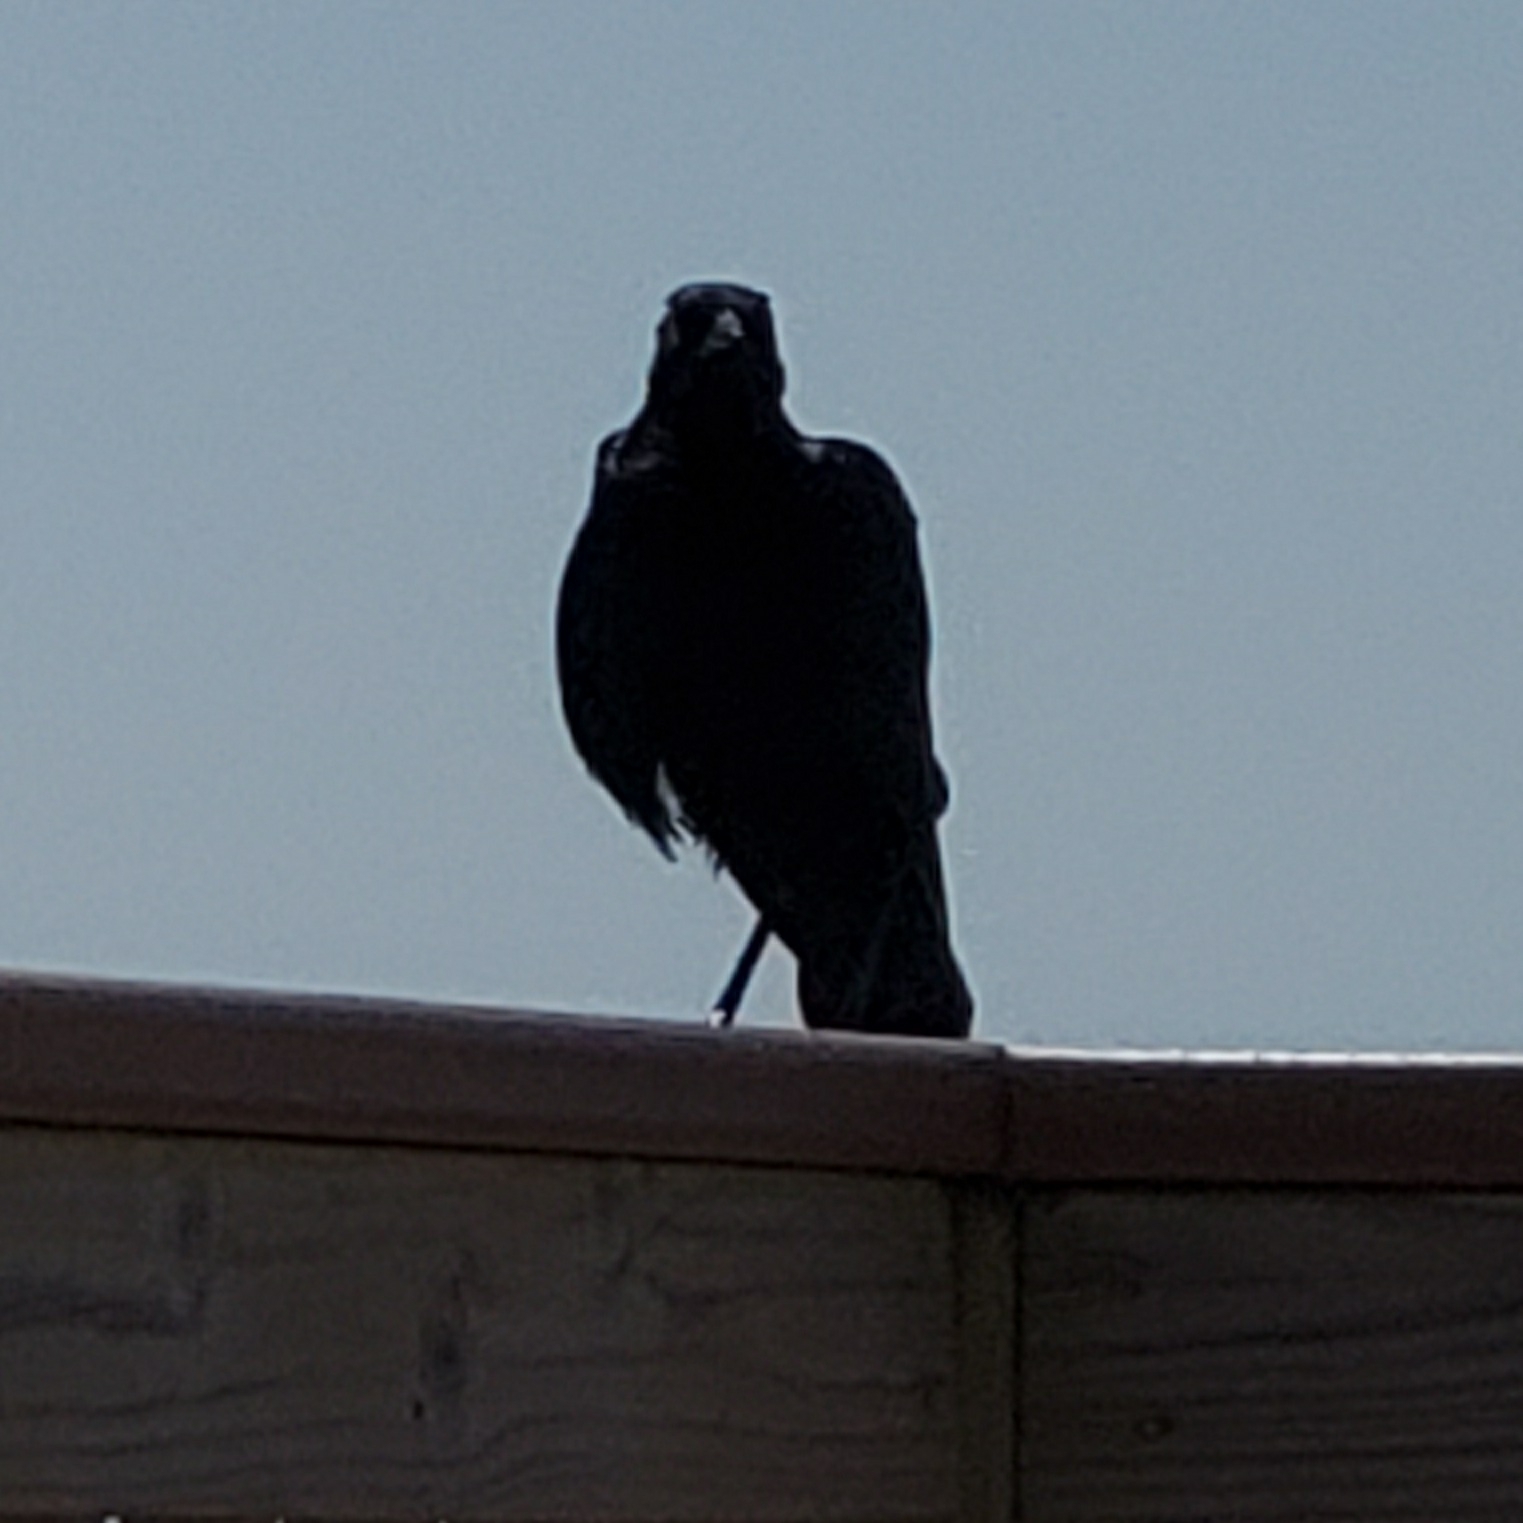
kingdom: Animalia
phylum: Chordata
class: Aves
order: Passeriformes
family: Icteridae
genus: Quiscalus
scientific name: Quiscalus quiscula
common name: Common grackle
